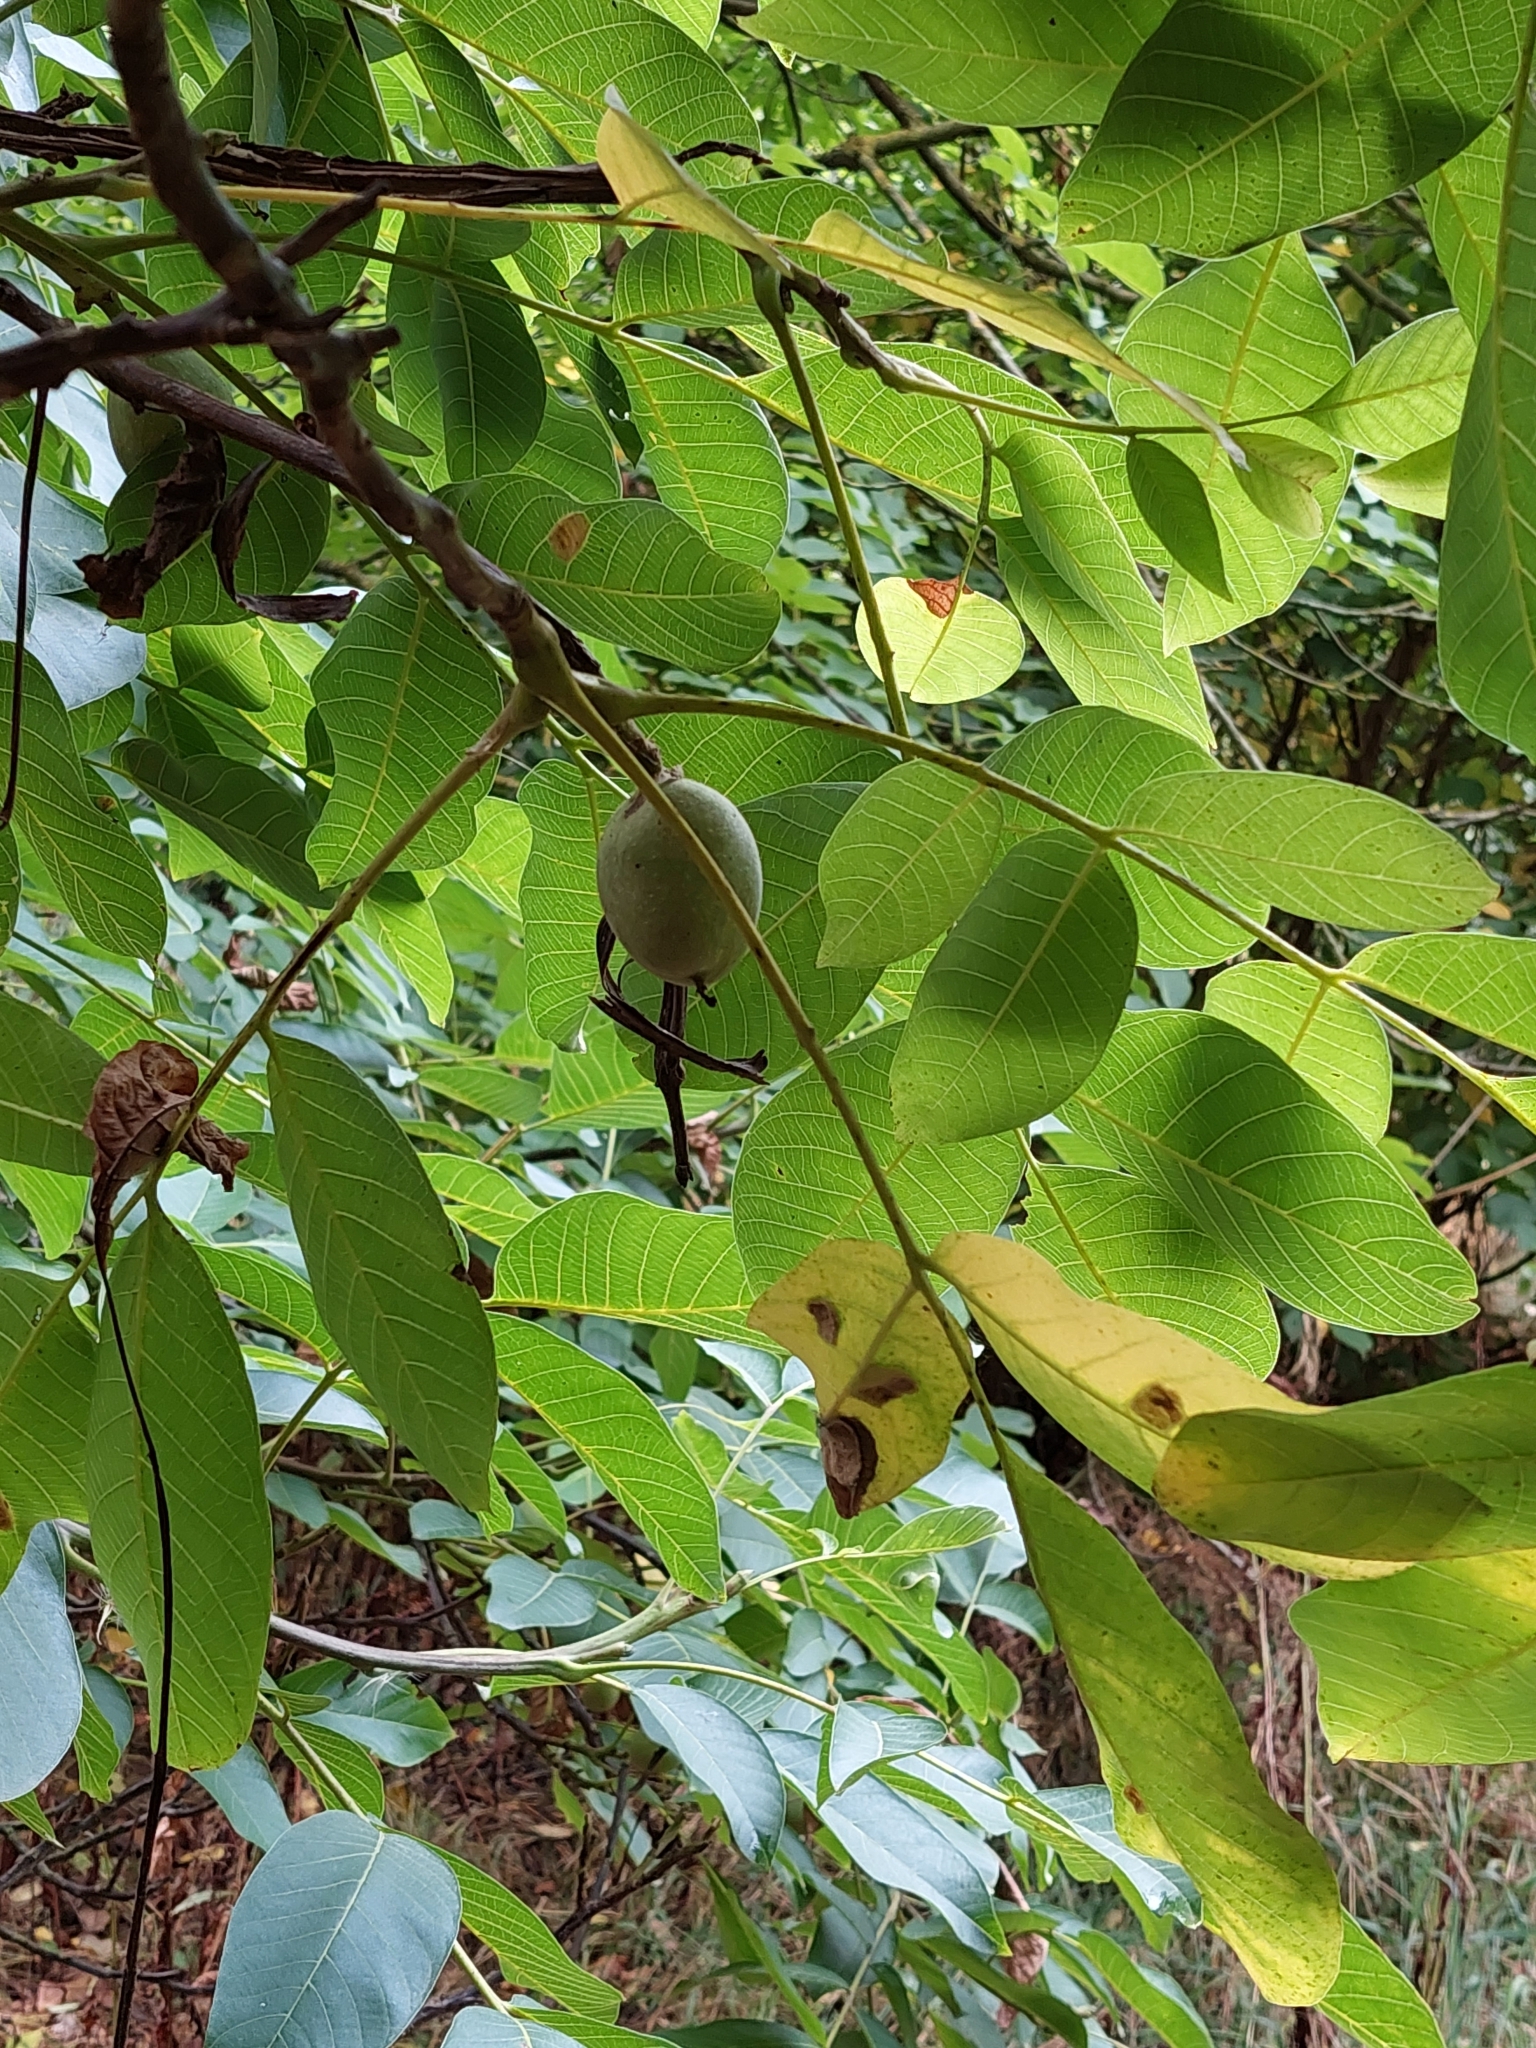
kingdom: Plantae
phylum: Tracheophyta
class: Magnoliopsida
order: Fagales
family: Juglandaceae
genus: Juglans
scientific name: Juglans regia
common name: Walnut
